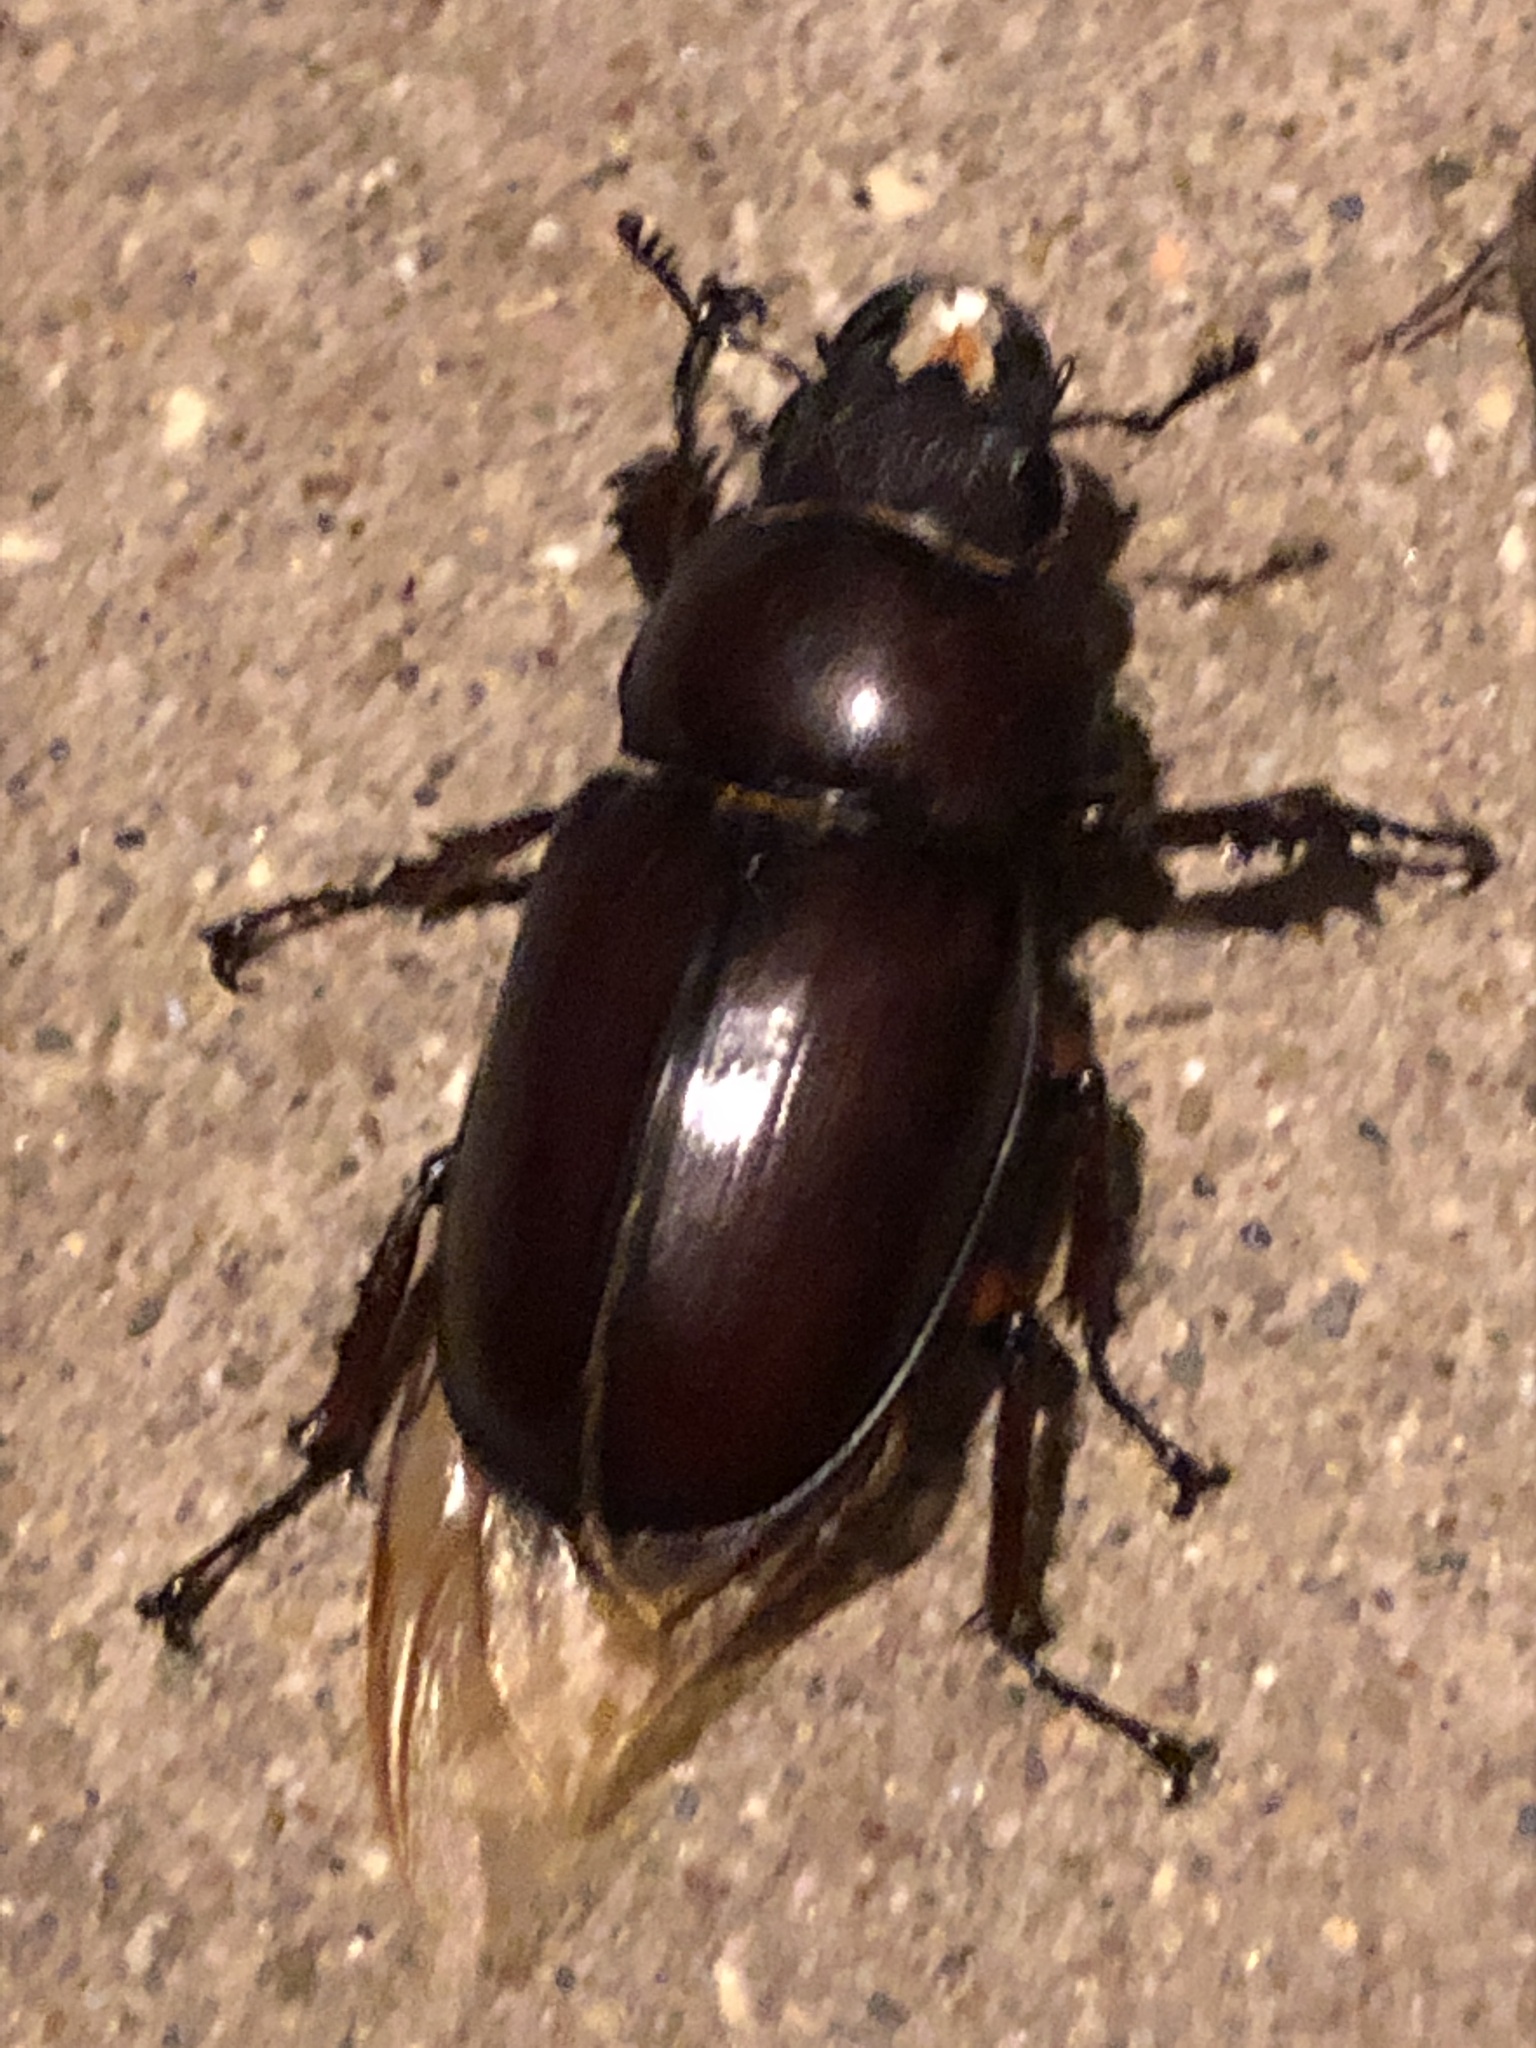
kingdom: Animalia
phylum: Arthropoda
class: Insecta
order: Coleoptera
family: Lucanidae
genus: Lucanus
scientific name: Lucanus capreolus
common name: Stag beetle
